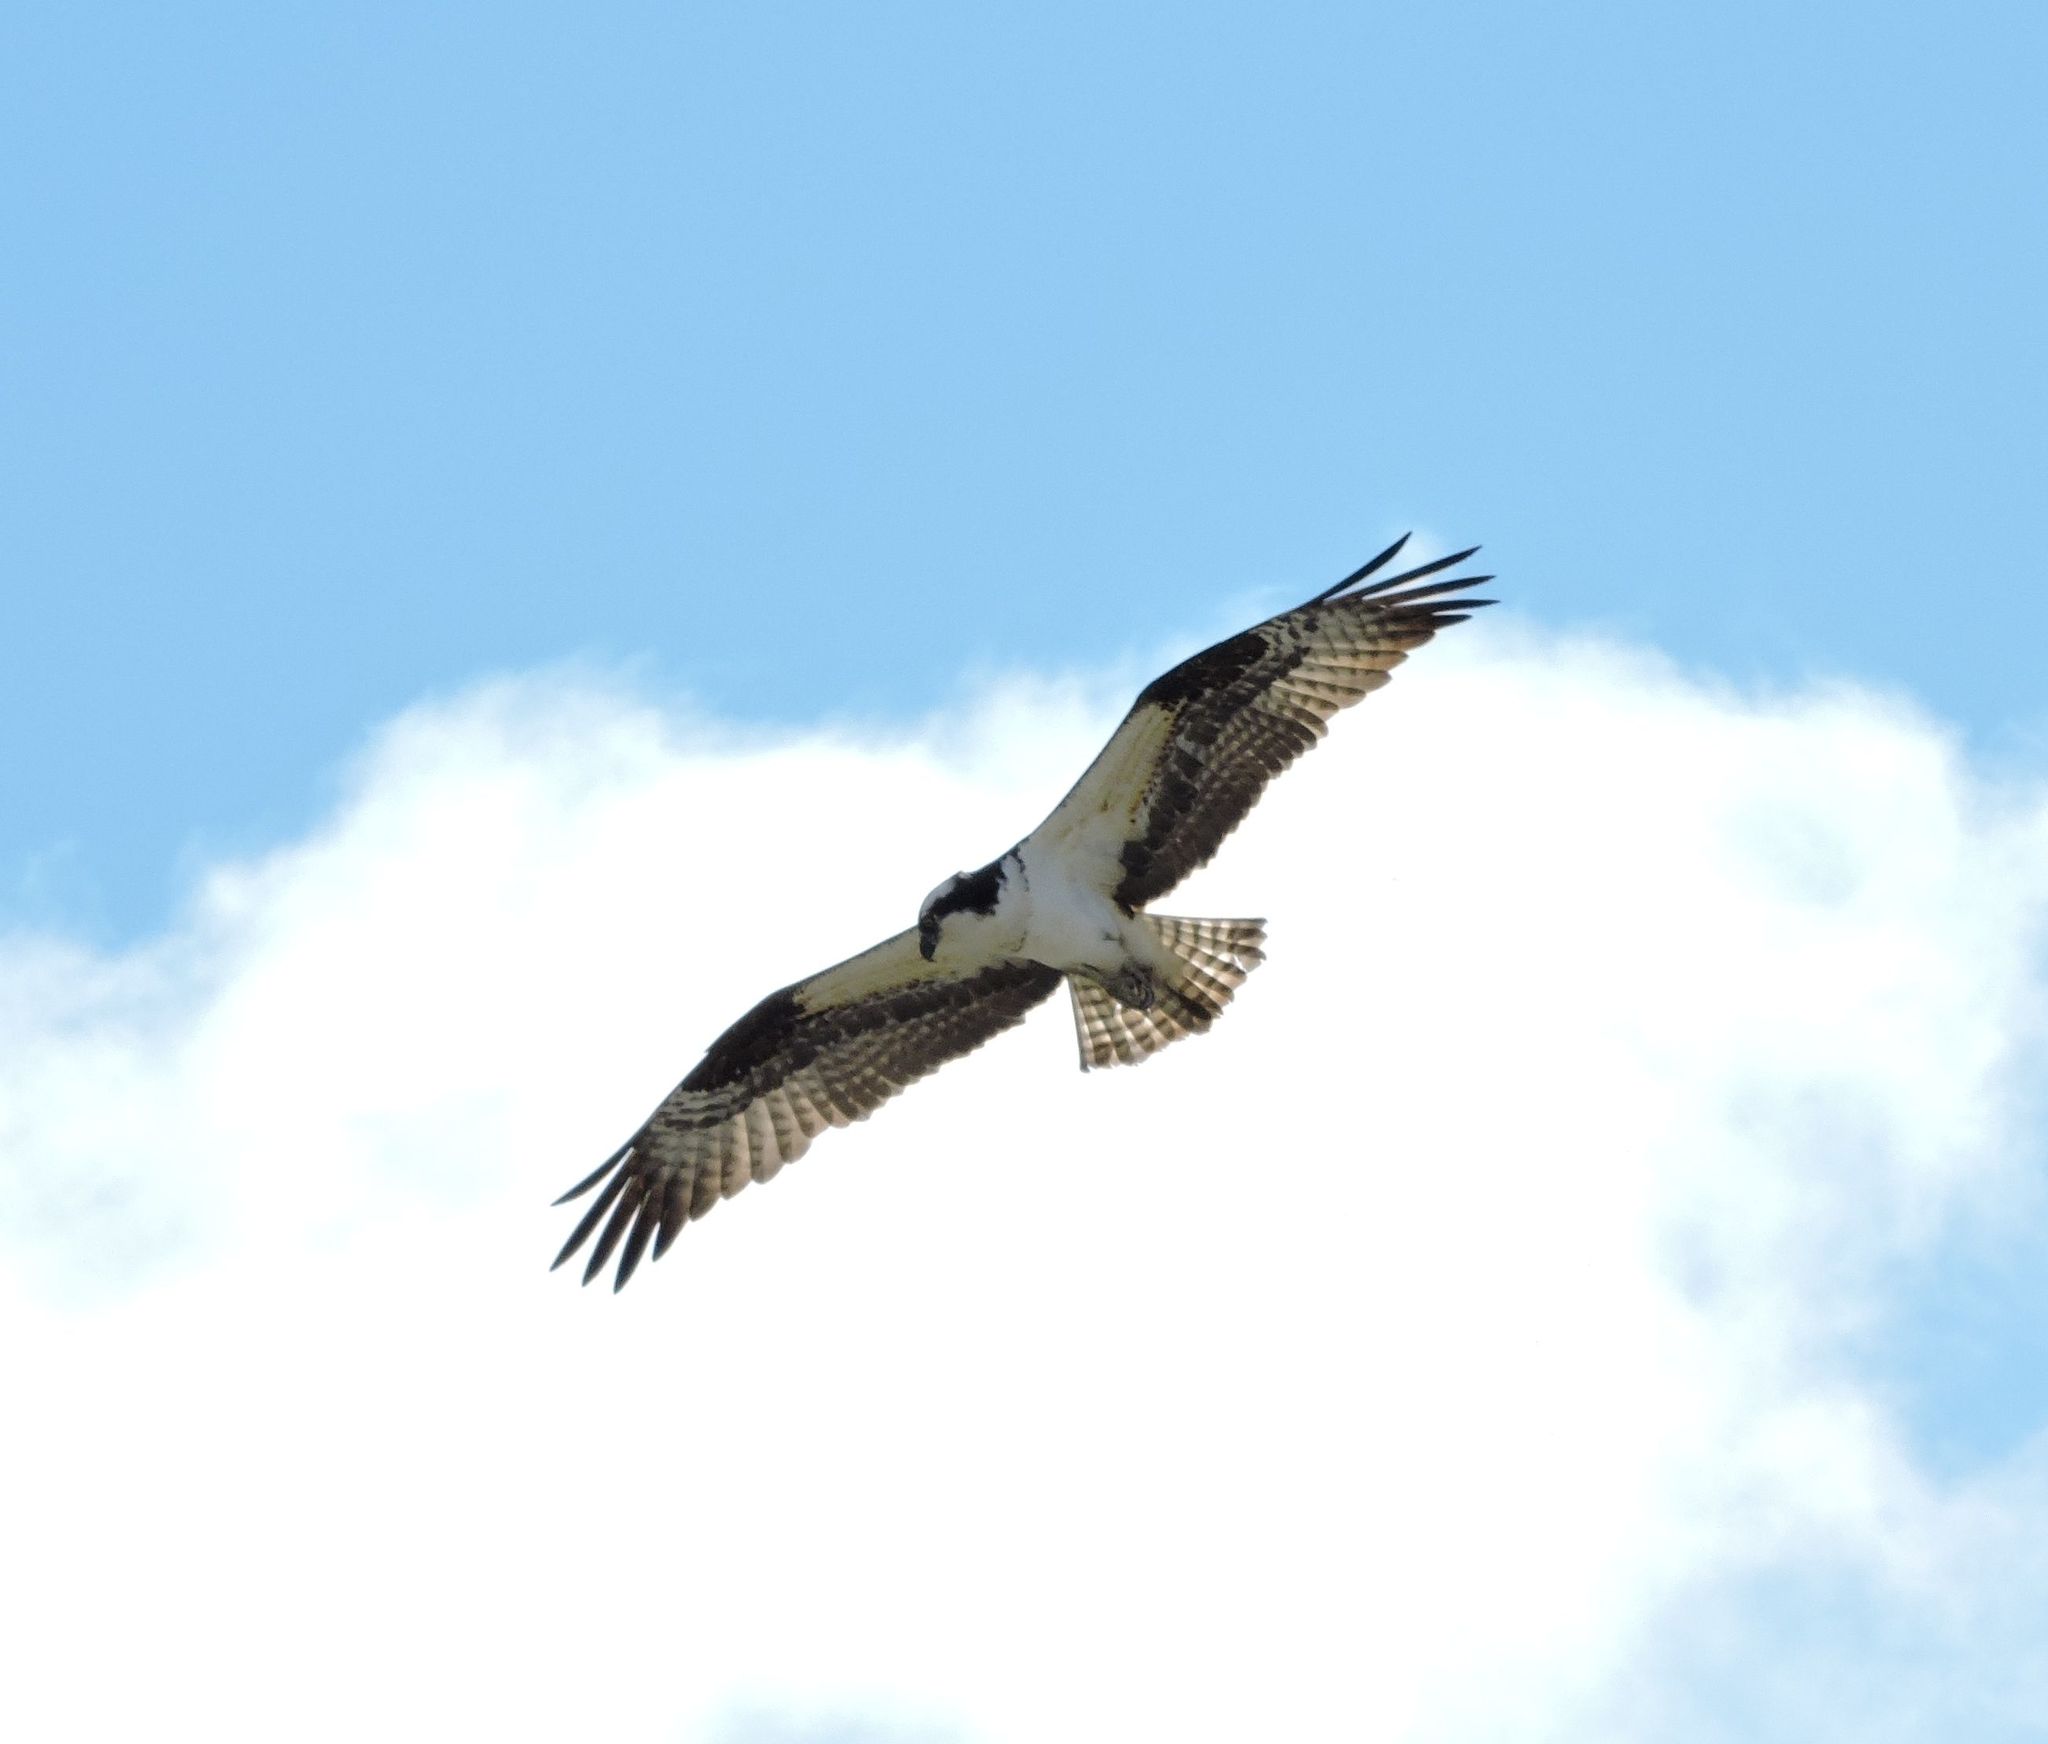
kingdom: Animalia
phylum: Chordata
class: Aves
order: Accipitriformes
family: Pandionidae
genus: Pandion
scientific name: Pandion haliaetus
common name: Osprey
